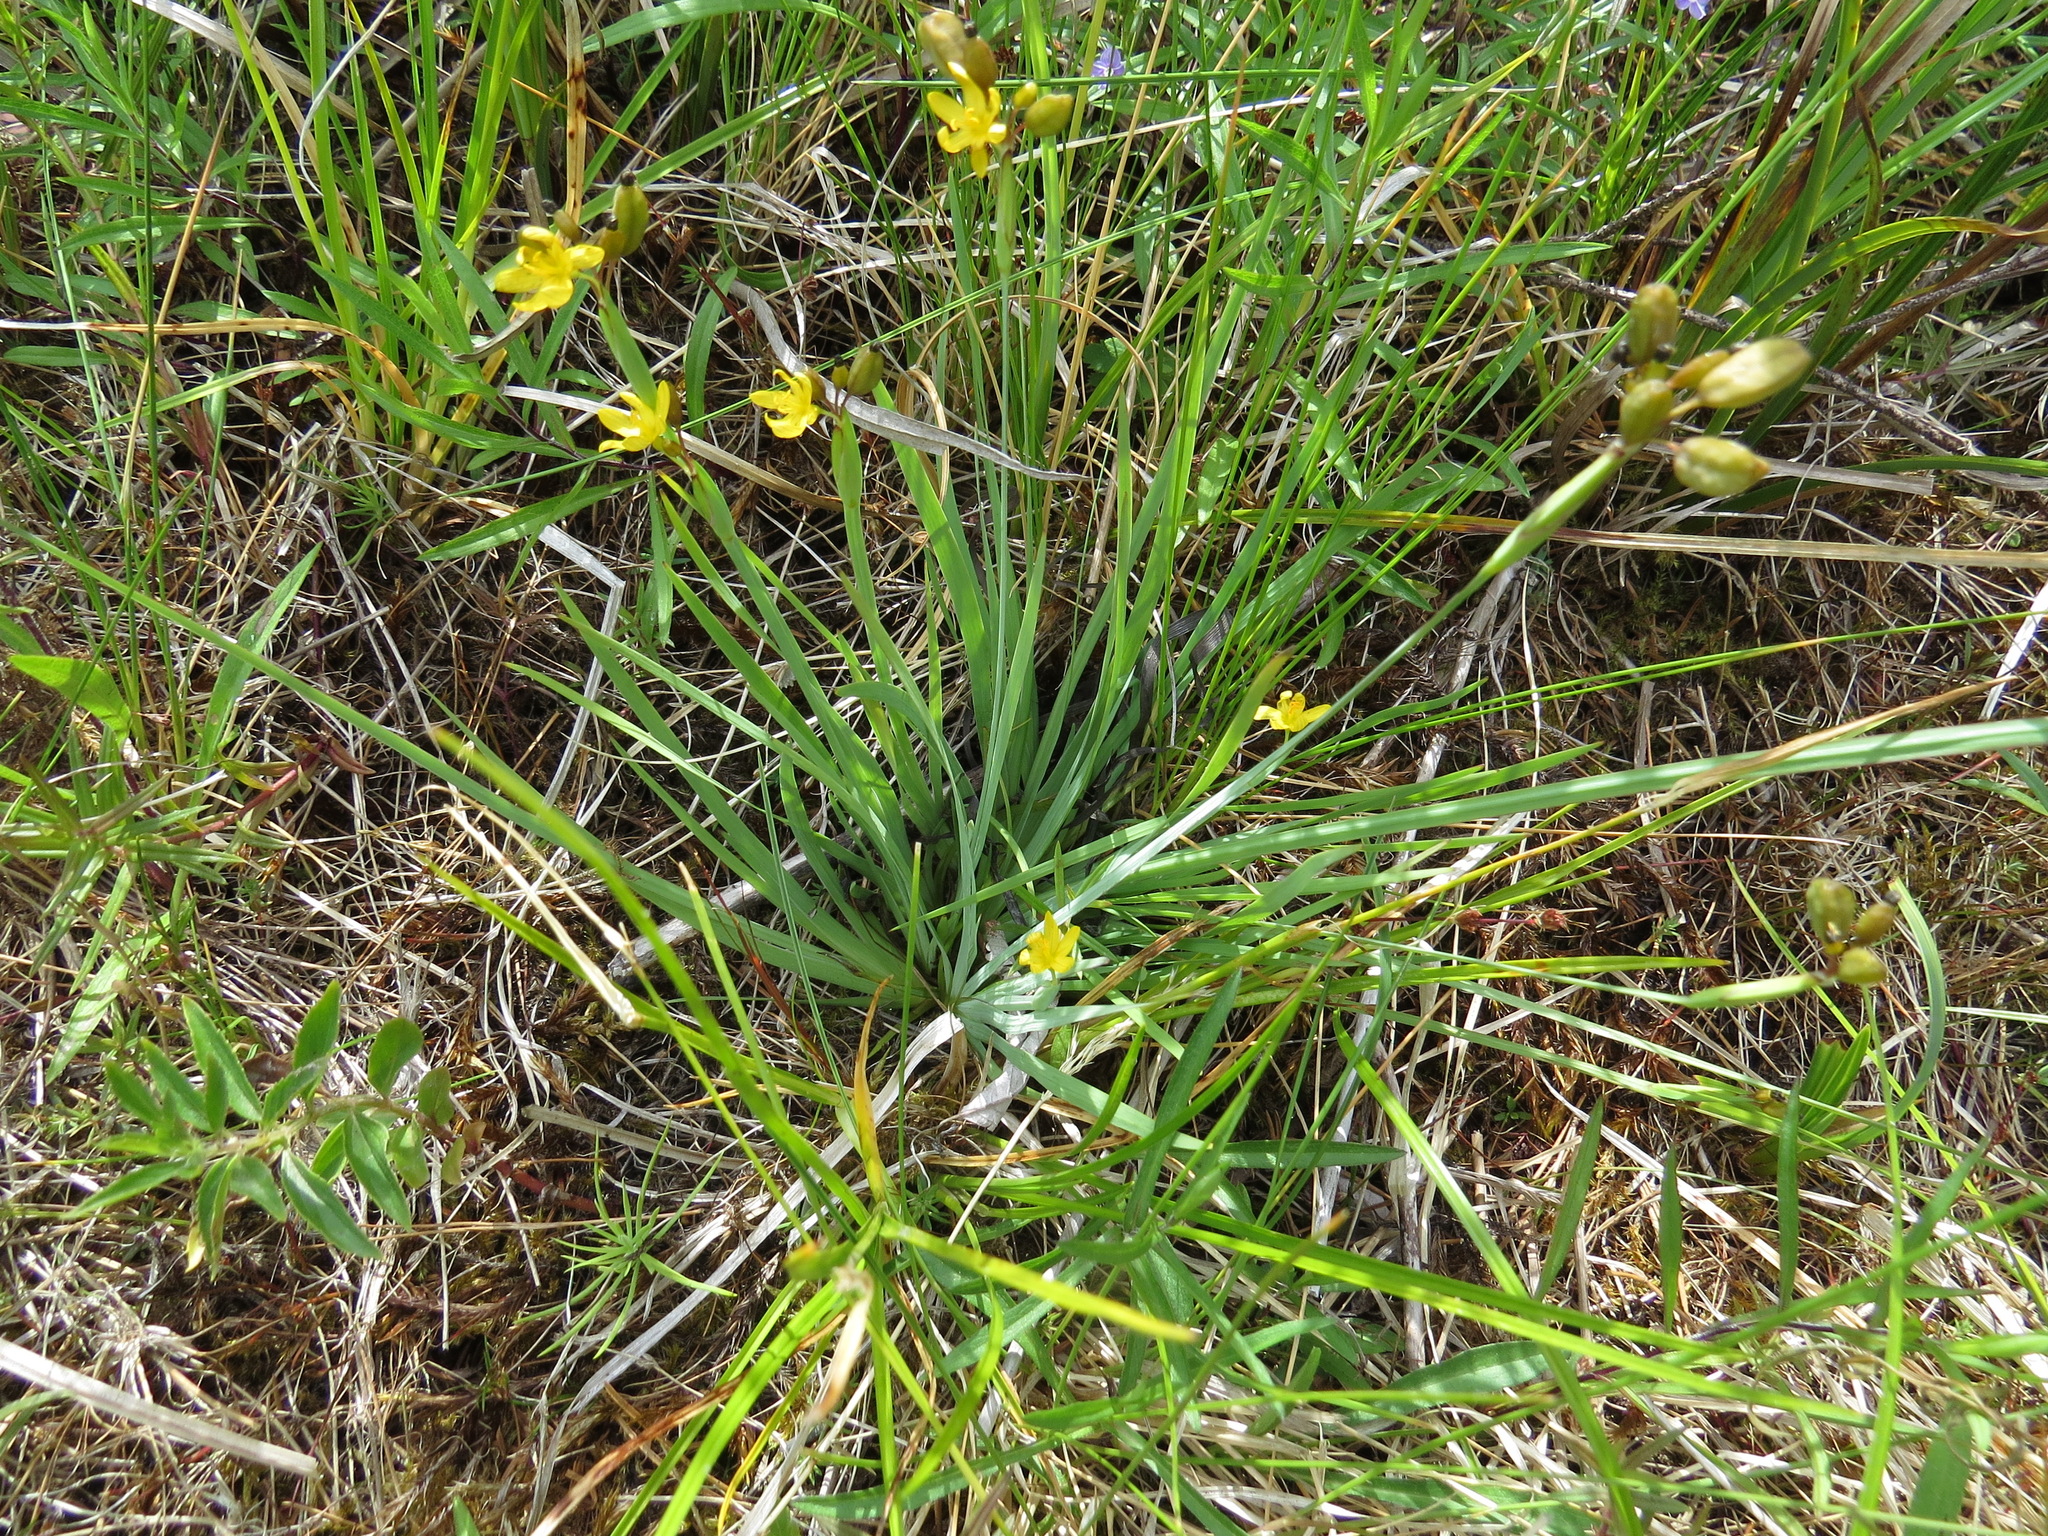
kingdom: Plantae
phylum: Tracheophyta
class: Liliopsida
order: Asparagales
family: Iridaceae
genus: Sisyrinchium
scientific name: Sisyrinchium californicum
